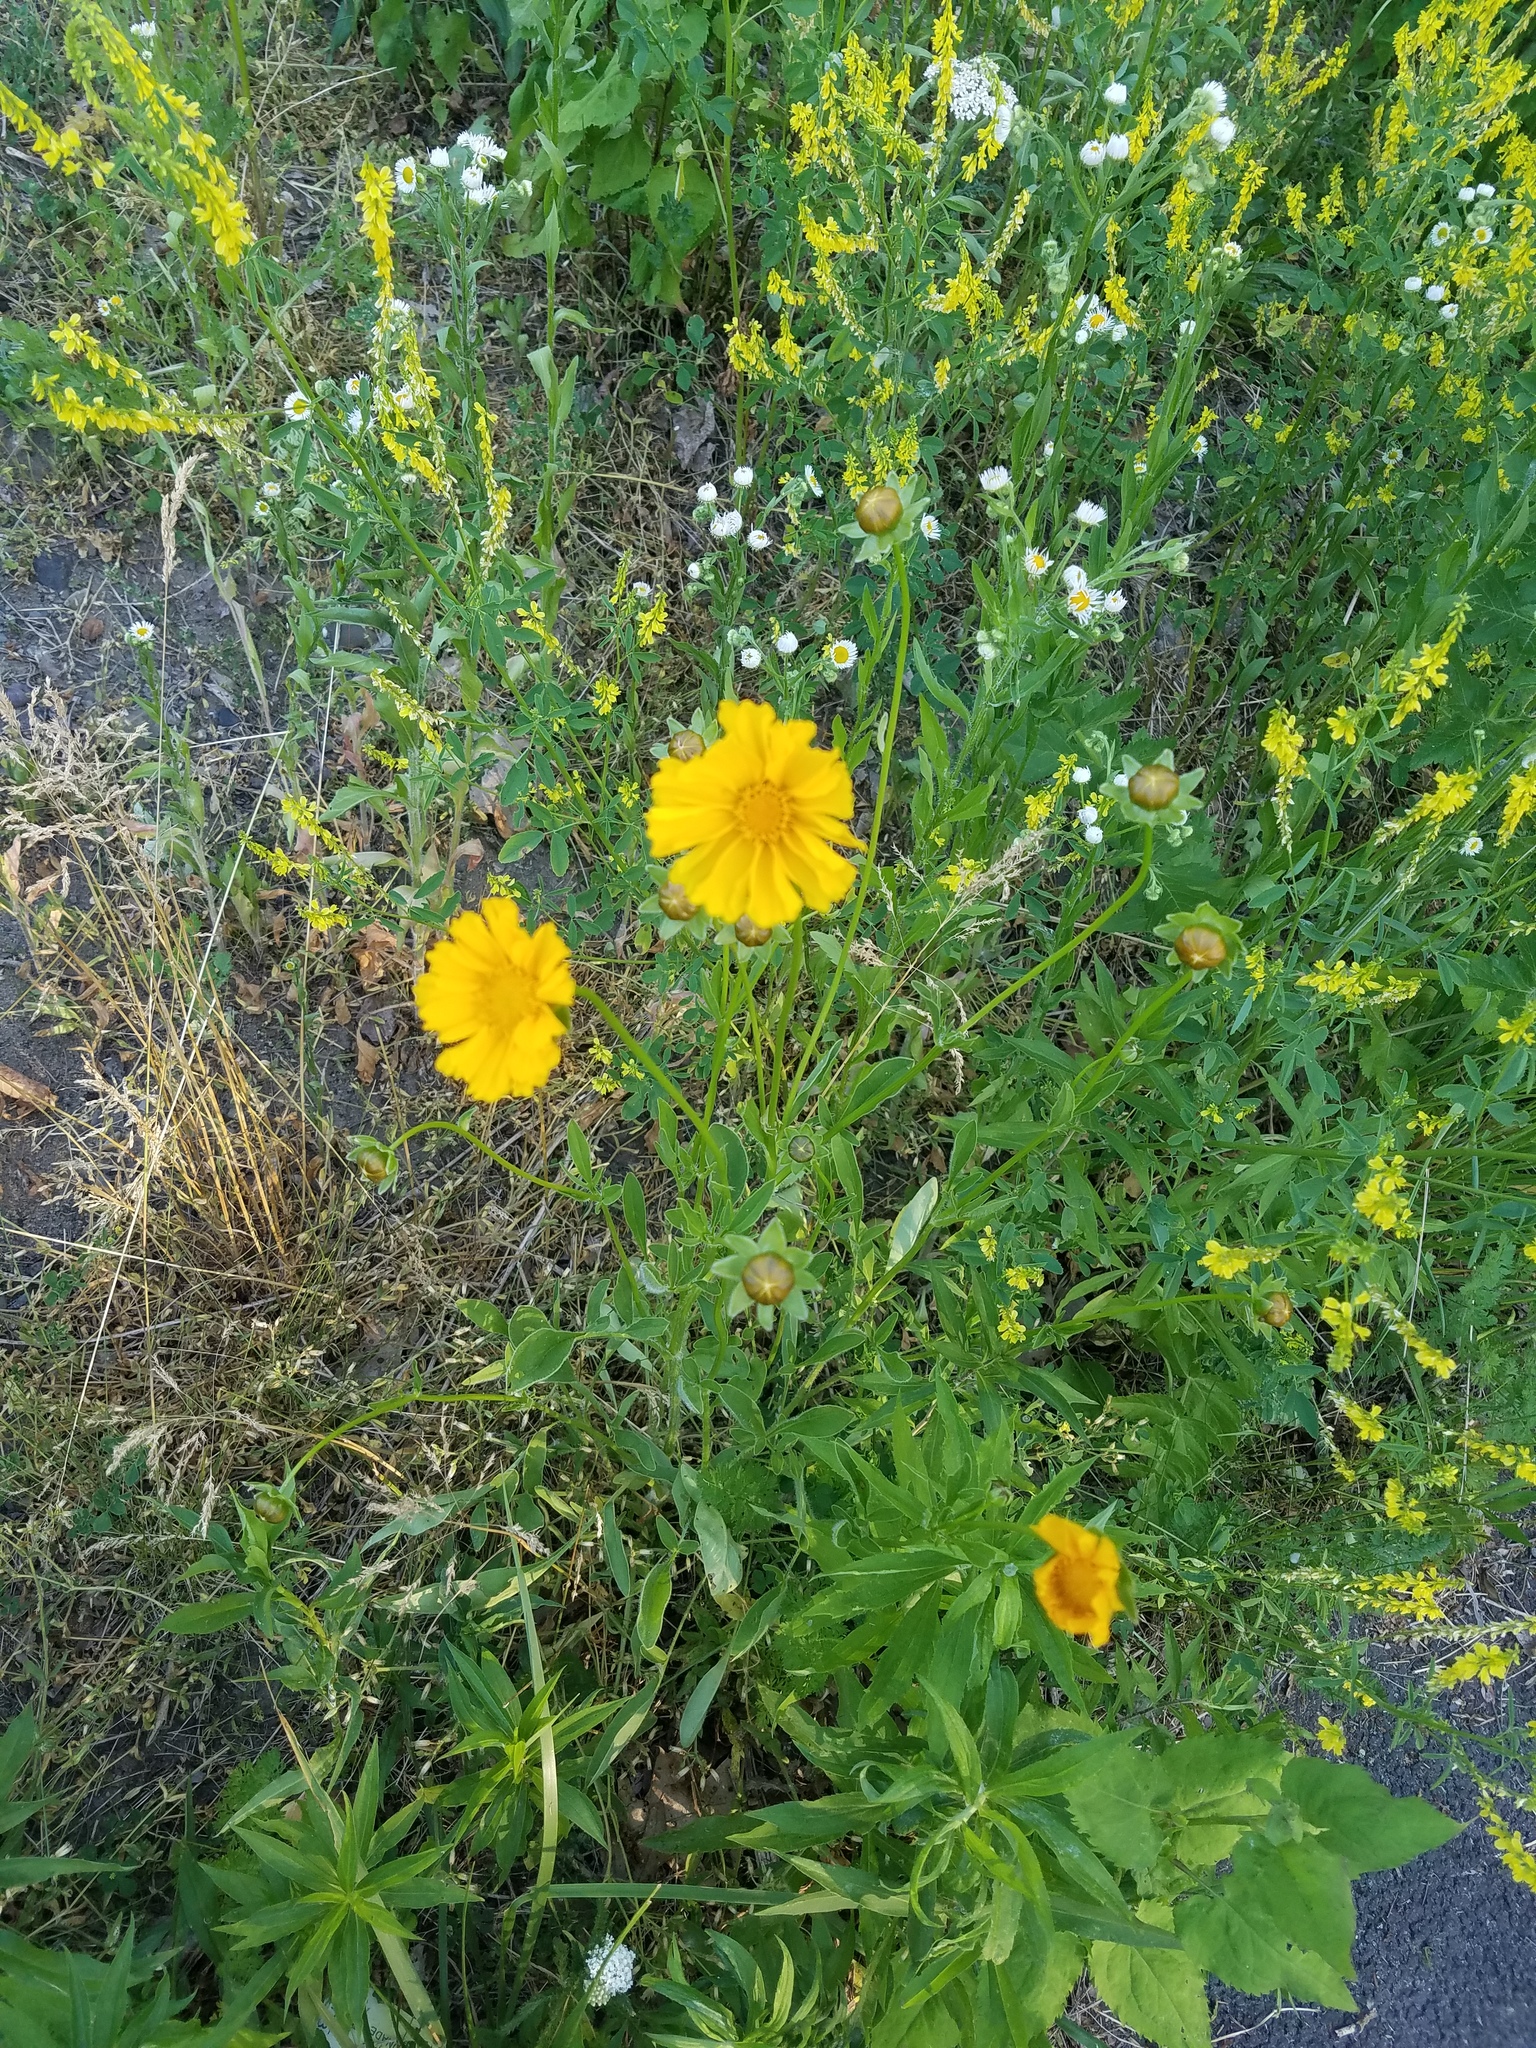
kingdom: Plantae
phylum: Tracheophyta
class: Magnoliopsida
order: Asterales
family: Asteraceae
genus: Coreopsis
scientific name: Coreopsis lanceolata
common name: Garden coreopsis
